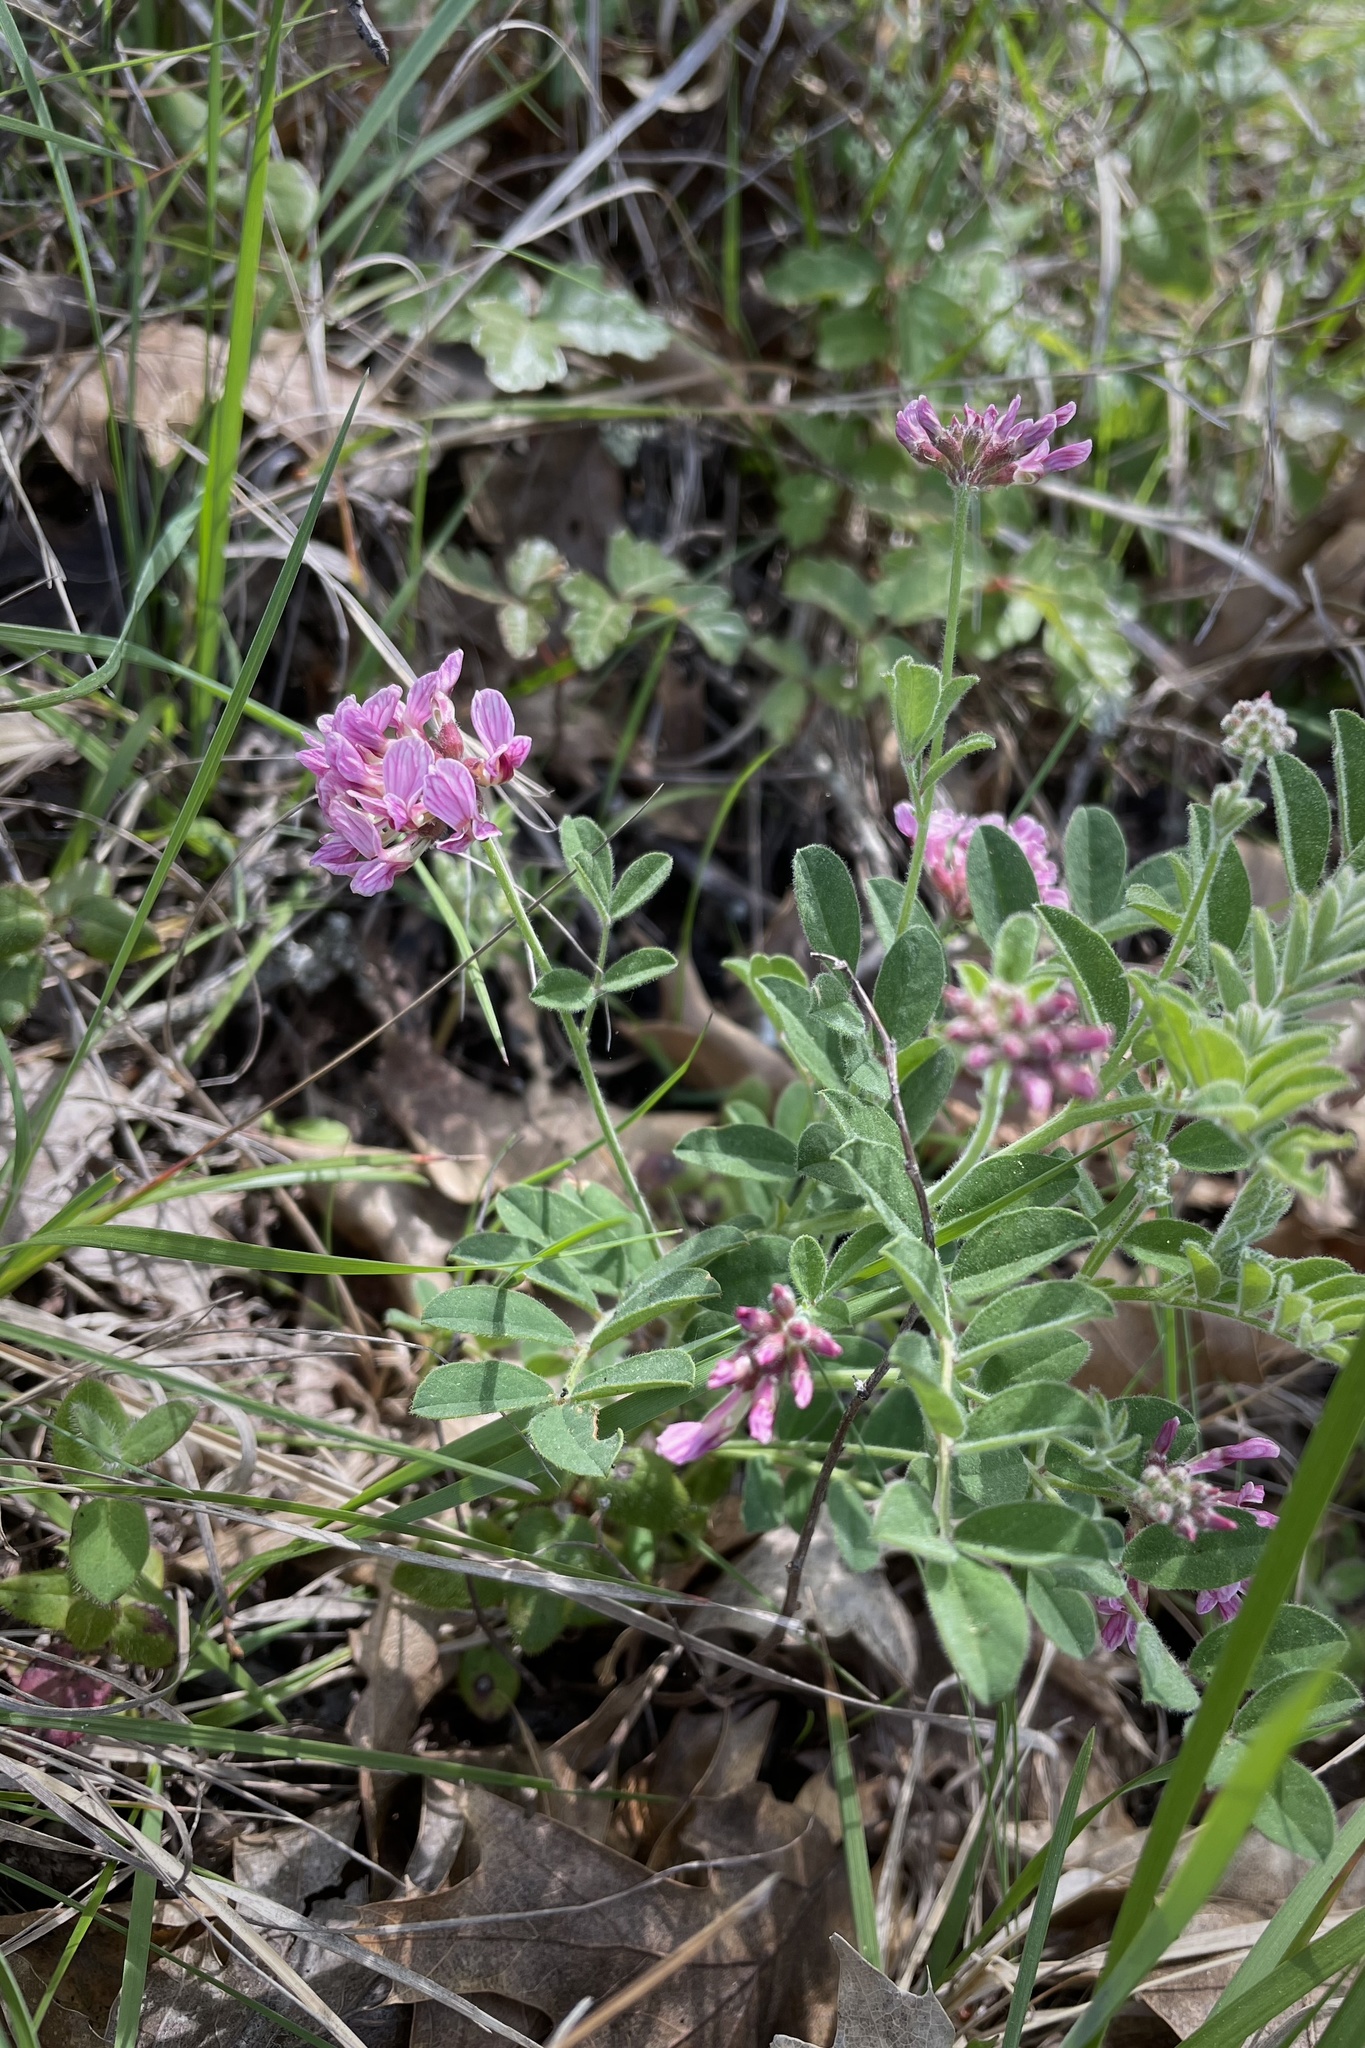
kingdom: Plantae
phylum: Tracheophyta
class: Magnoliopsida
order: Fabales
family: Fabaceae
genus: Hosackia
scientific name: Hosackia stipularis
